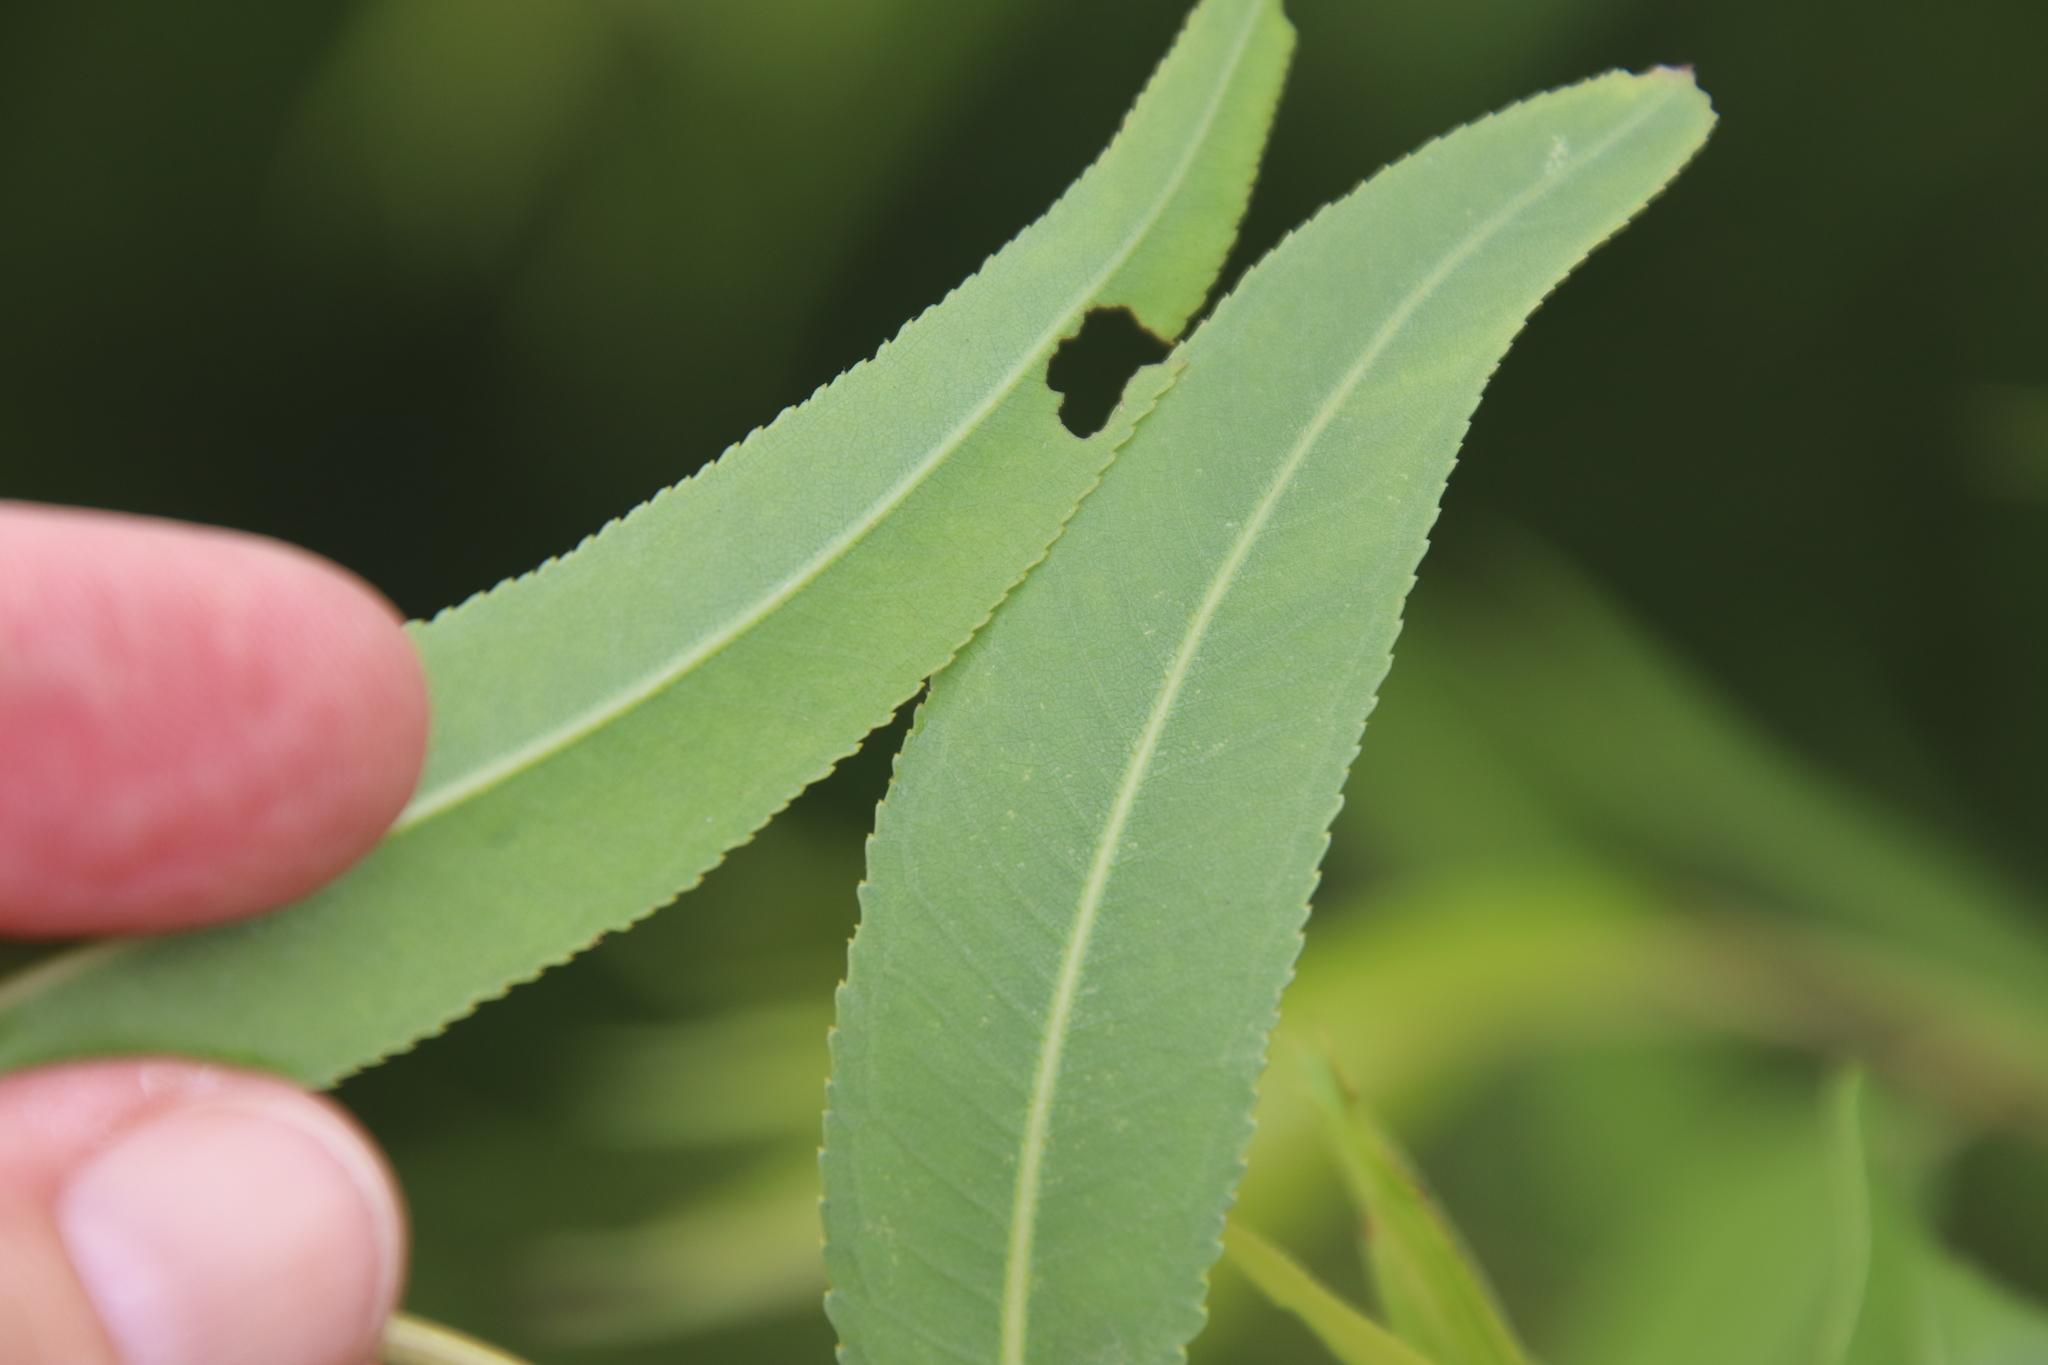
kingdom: Plantae
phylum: Tracheophyta
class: Magnoliopsida
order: Malpighiales
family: Salicaceae
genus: Salix
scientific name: Salix gooddingii
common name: Goodding's willow
